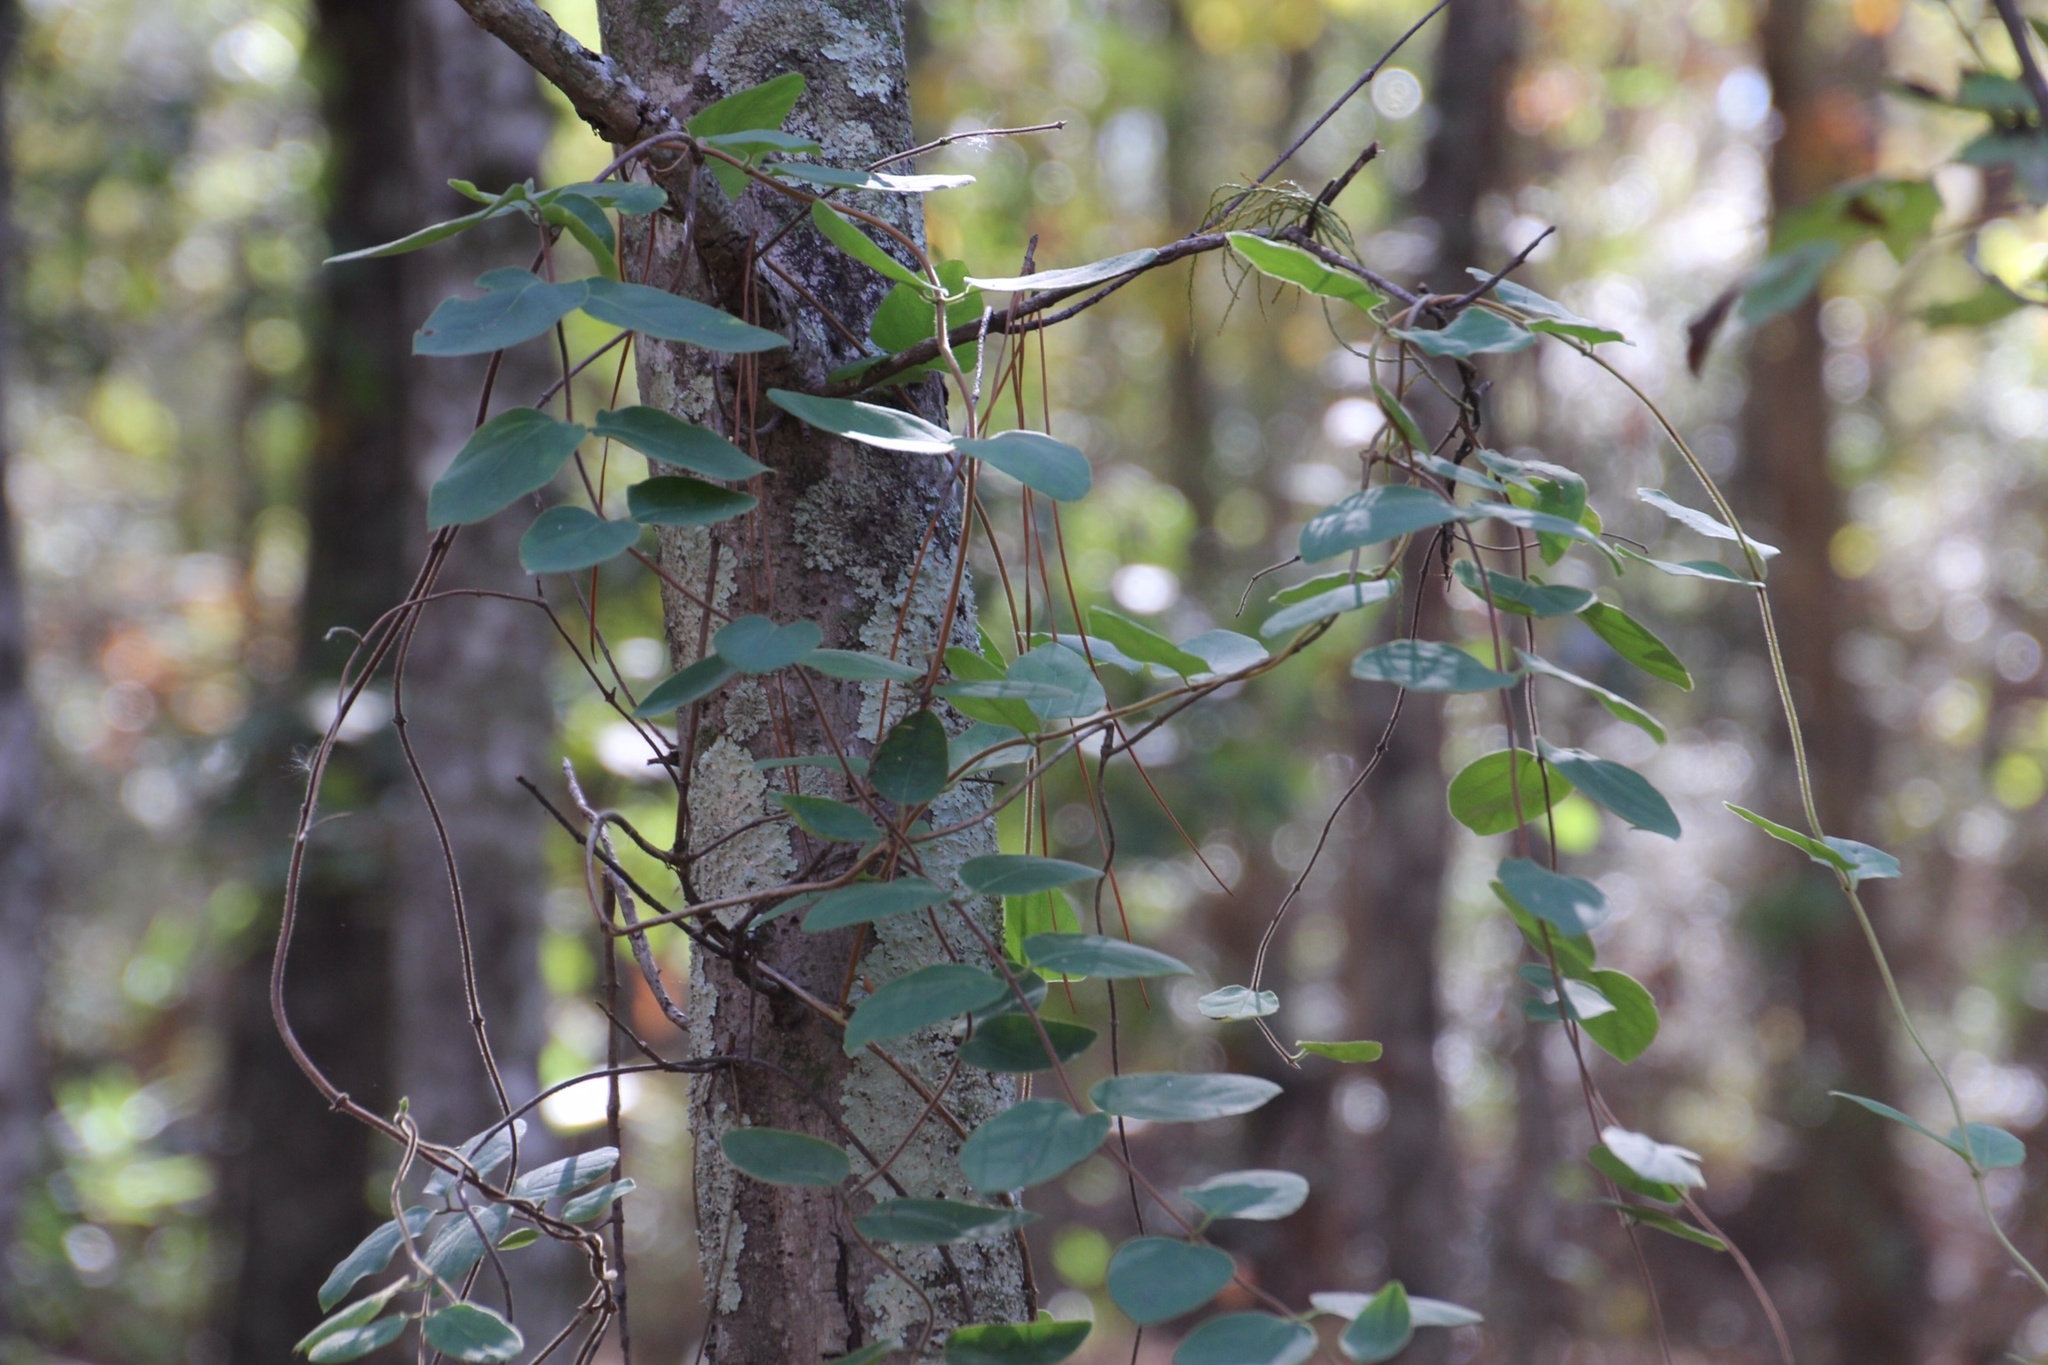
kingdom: Plantae
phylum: Tracheophyta
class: Magnoliopsida
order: Dipsacales
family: Caprifoliaceae
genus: Lonicera
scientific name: Lonicera japonica
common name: Japanese honeysuckle
